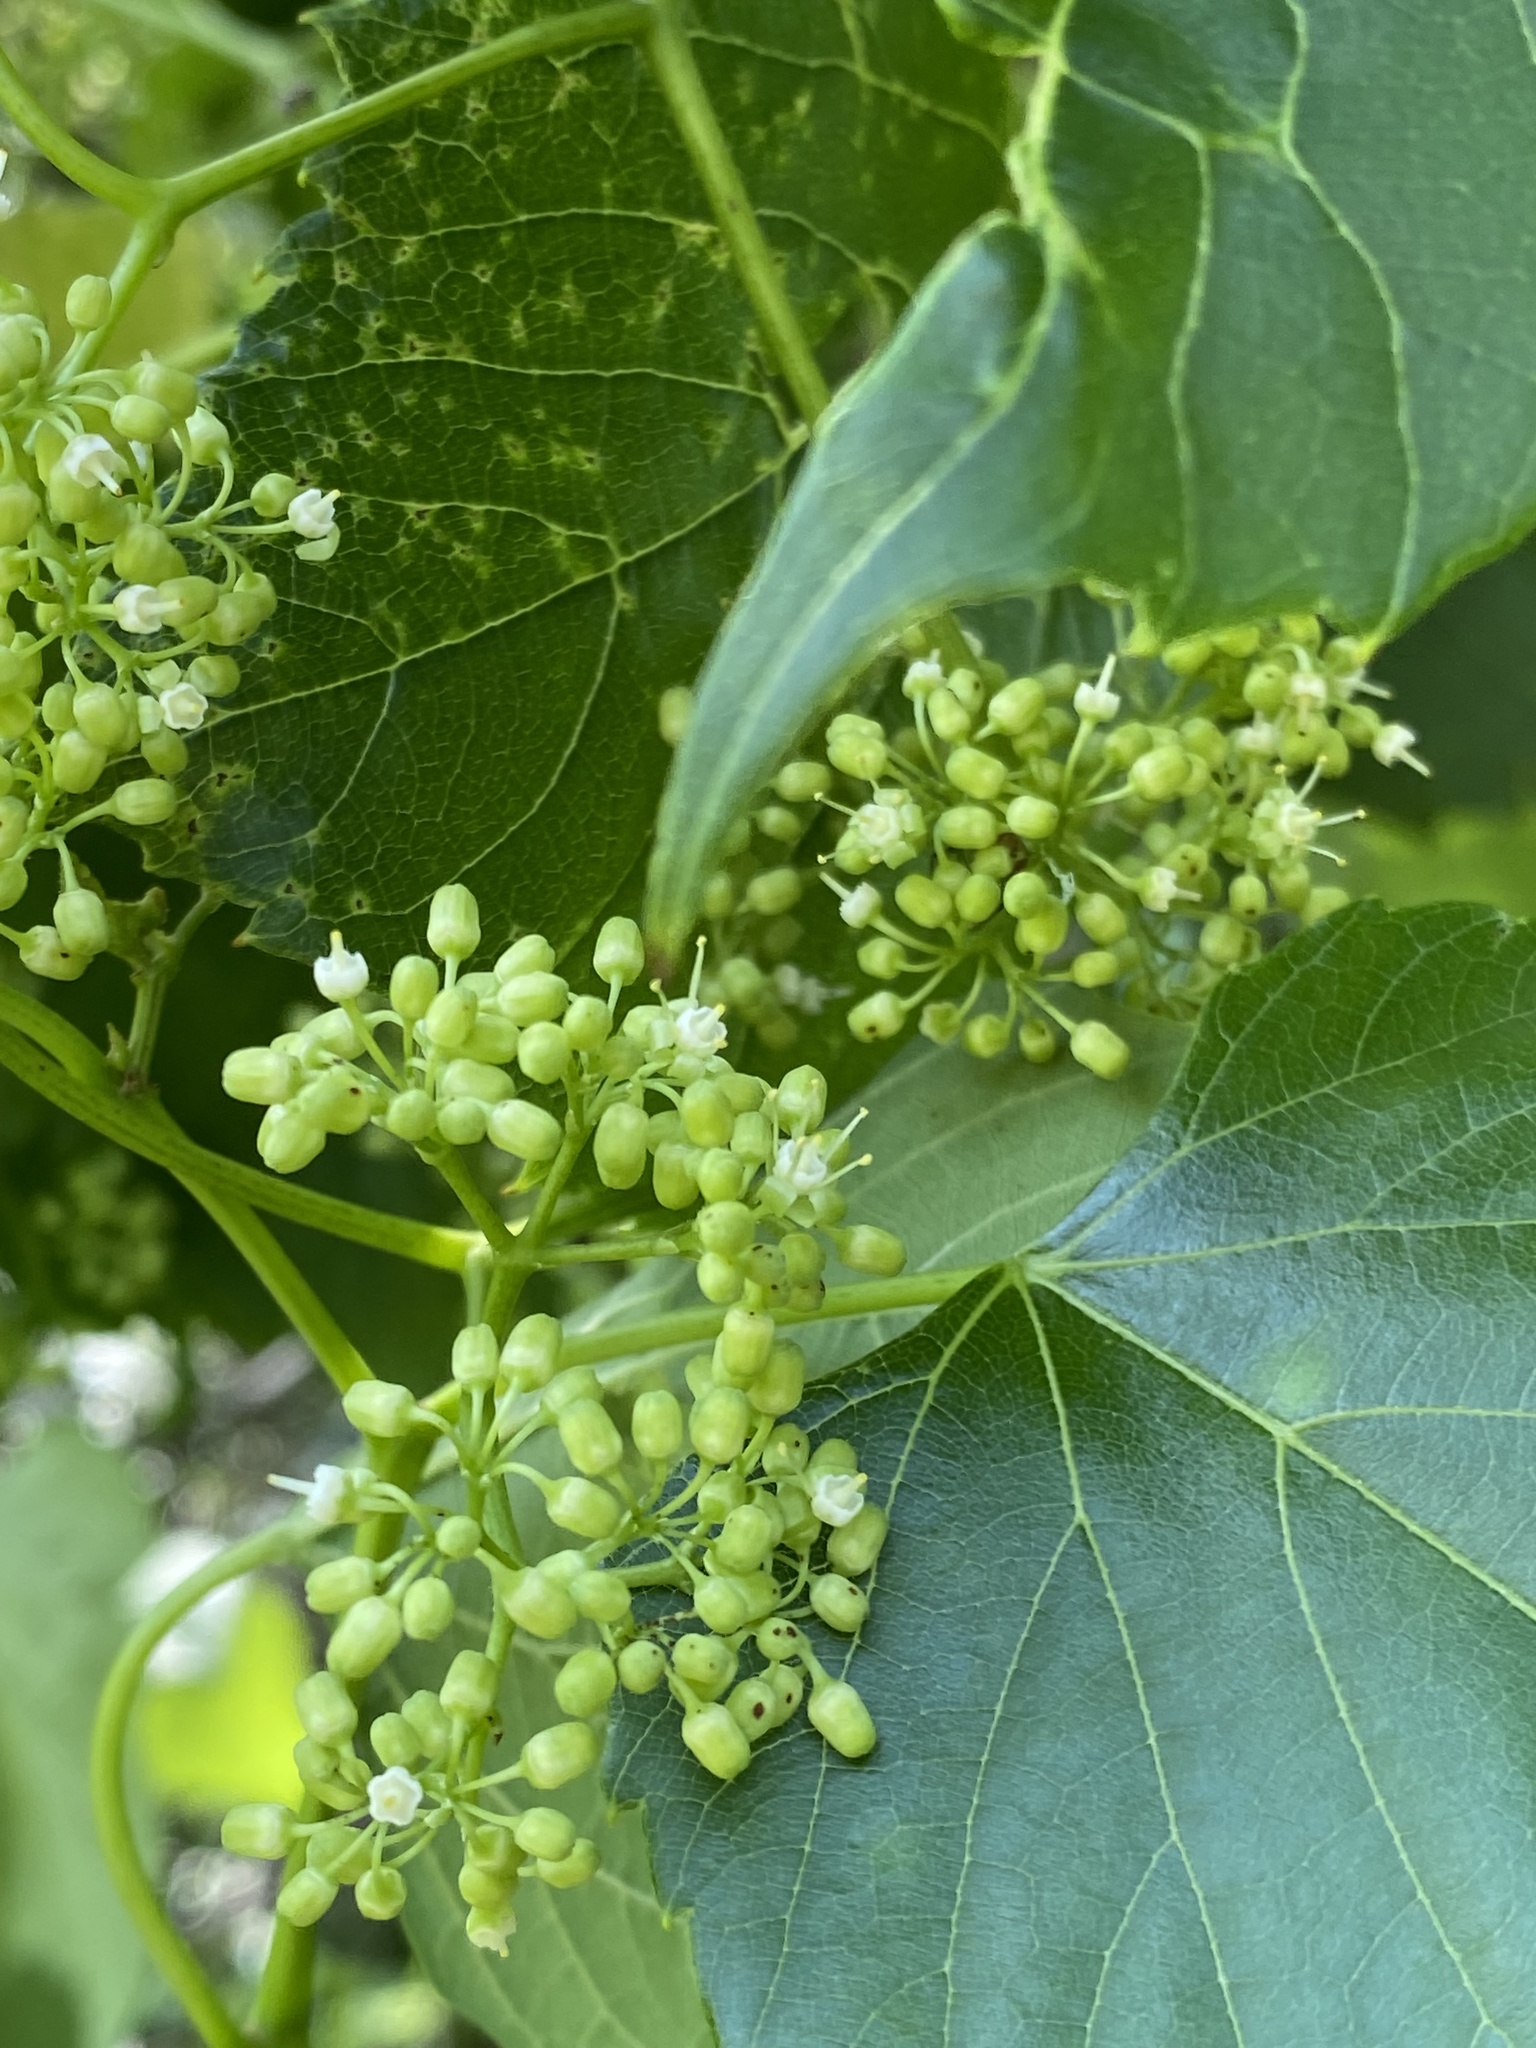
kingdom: Plantae
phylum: Tracheophyta
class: Magnoliopsida
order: Vitales
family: Vitaceae
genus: Ampelopsis
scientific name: Ampelopsis cordata
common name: Heart-leaf ampelopsis
